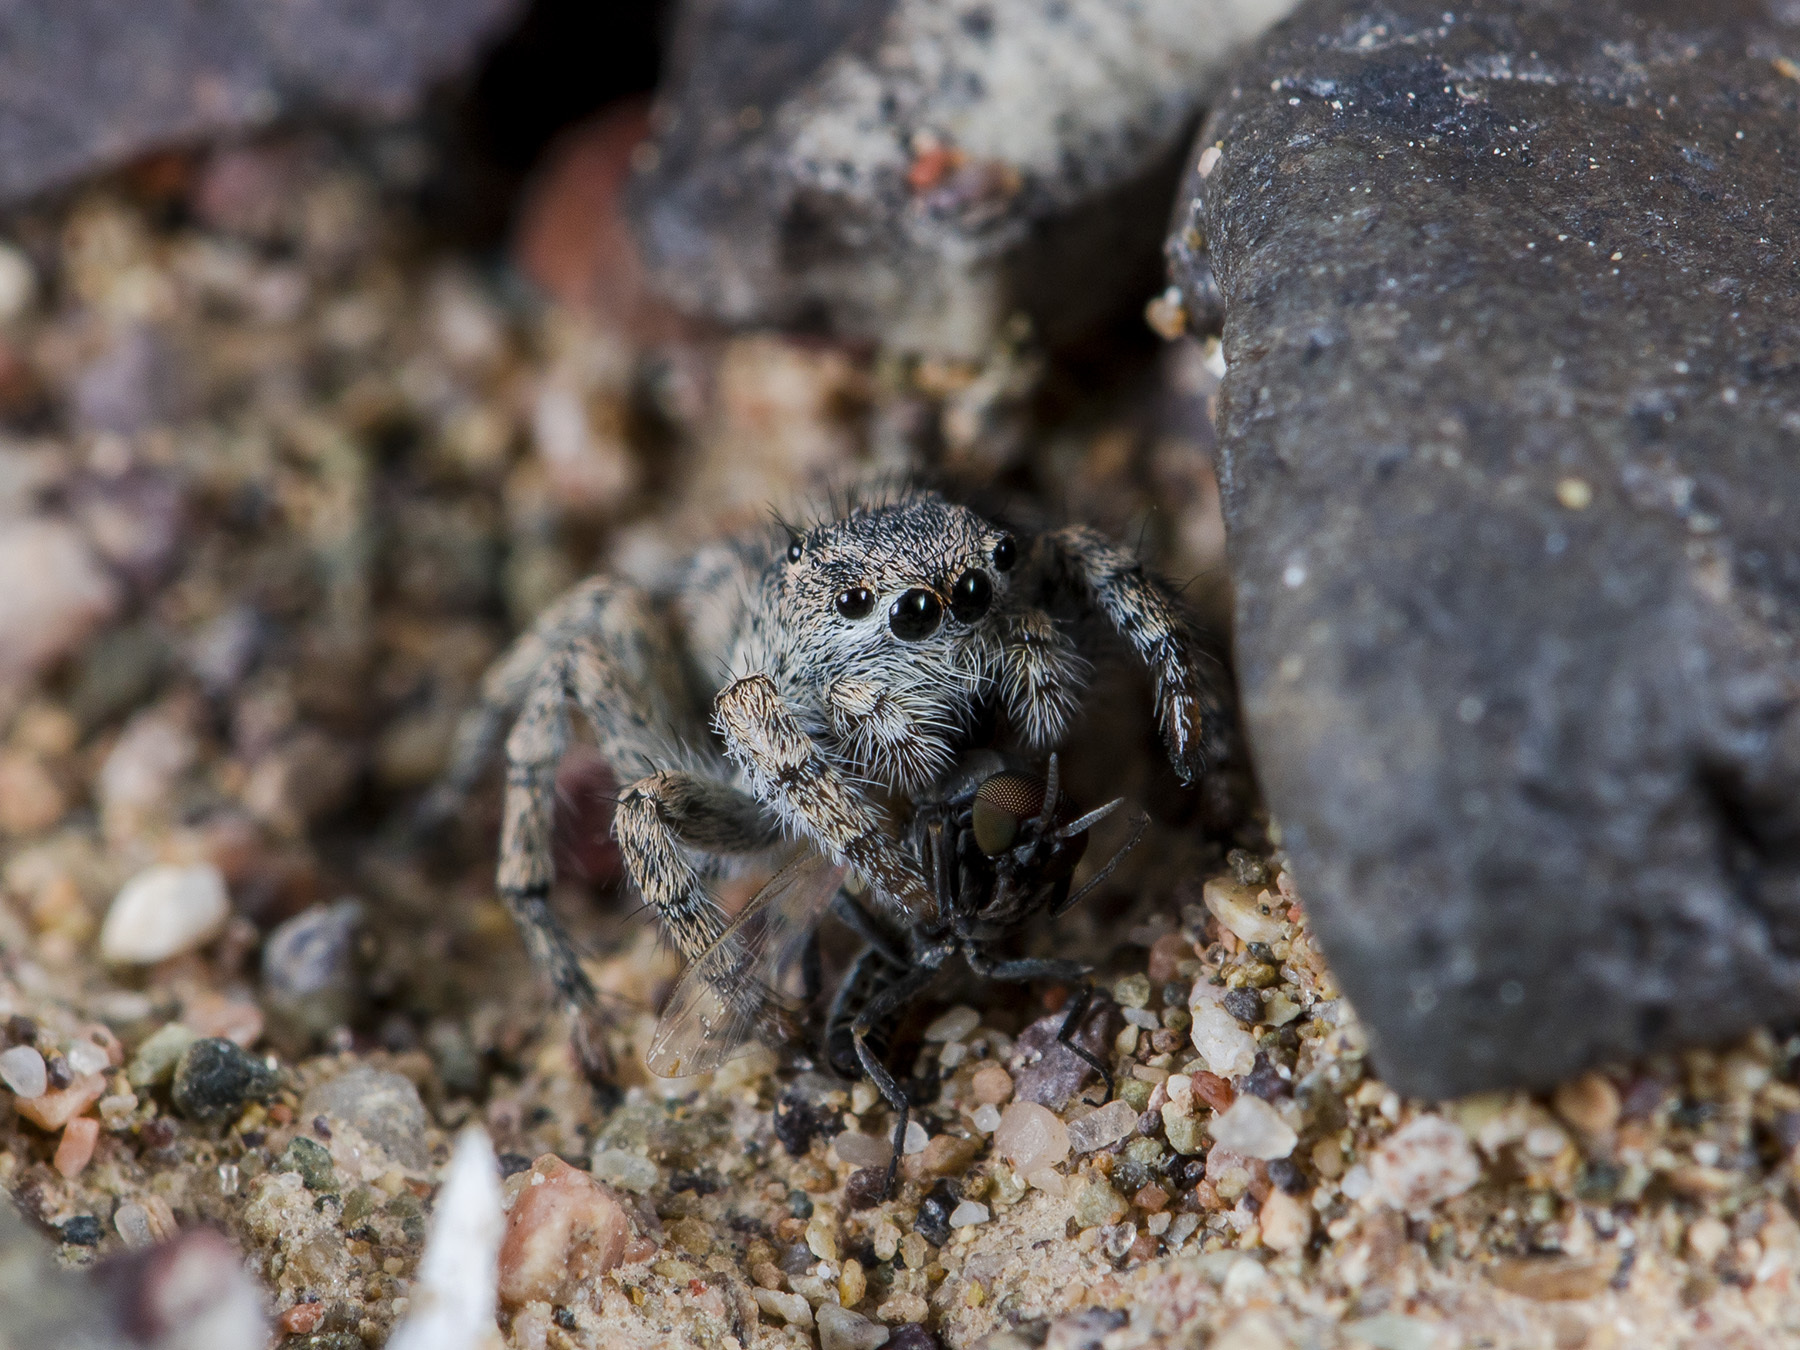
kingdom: Animalia
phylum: Arthropoda
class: Arachnida
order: Araneae
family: Salticidae
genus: Aelurillus
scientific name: Aelurillus dubatolovi
